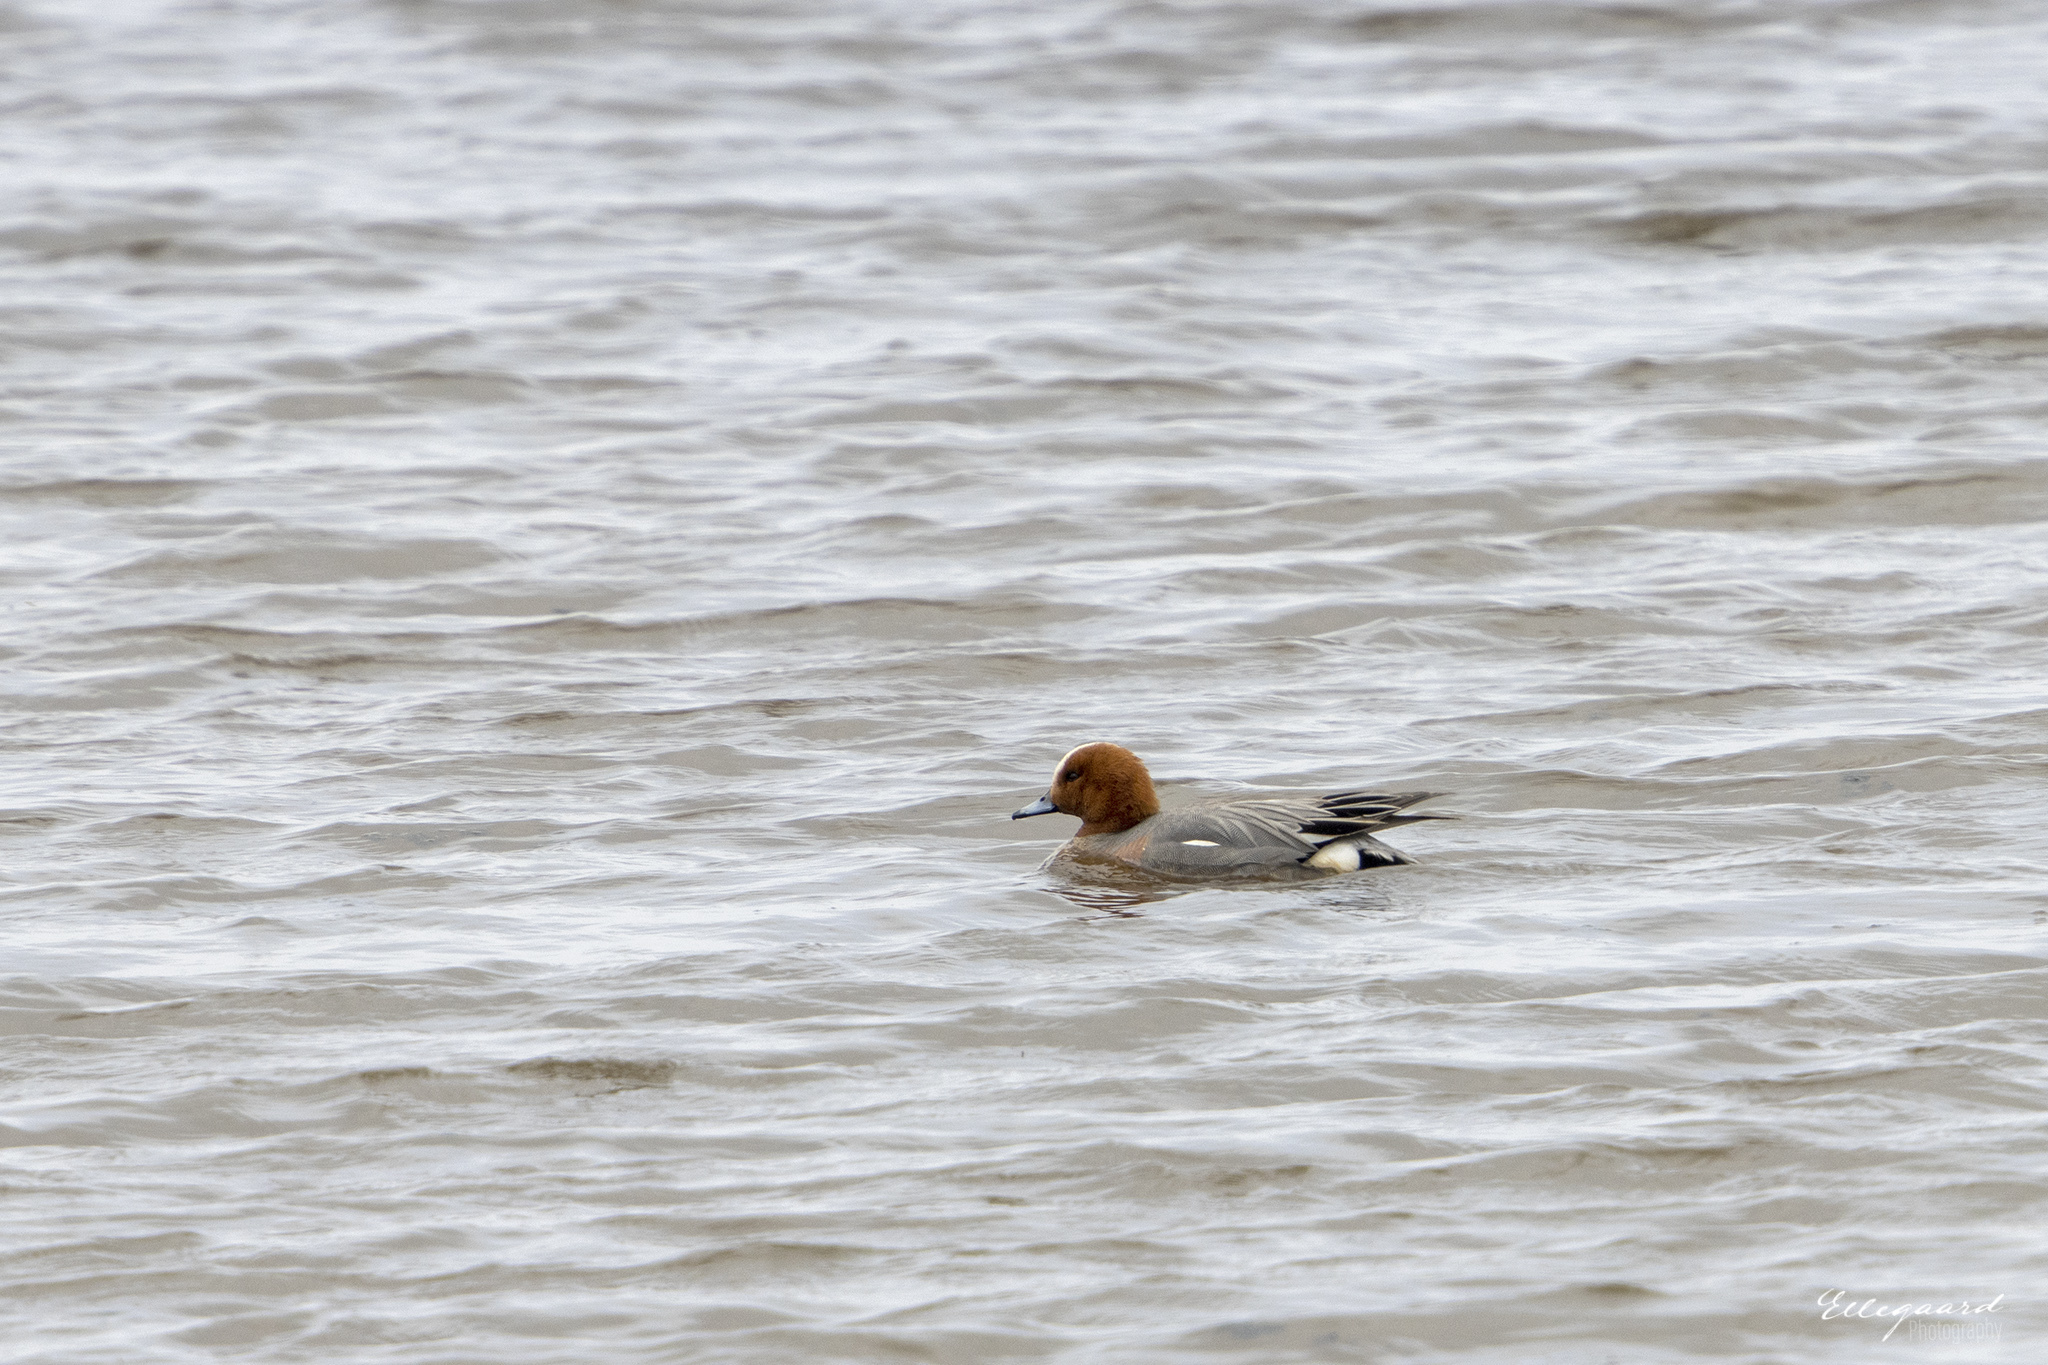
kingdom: Animalia
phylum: Chordata
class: Aves
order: Anseriformes
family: Anatidae
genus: Mareca
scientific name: Mareca penelope
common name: Eurasian wigeon
